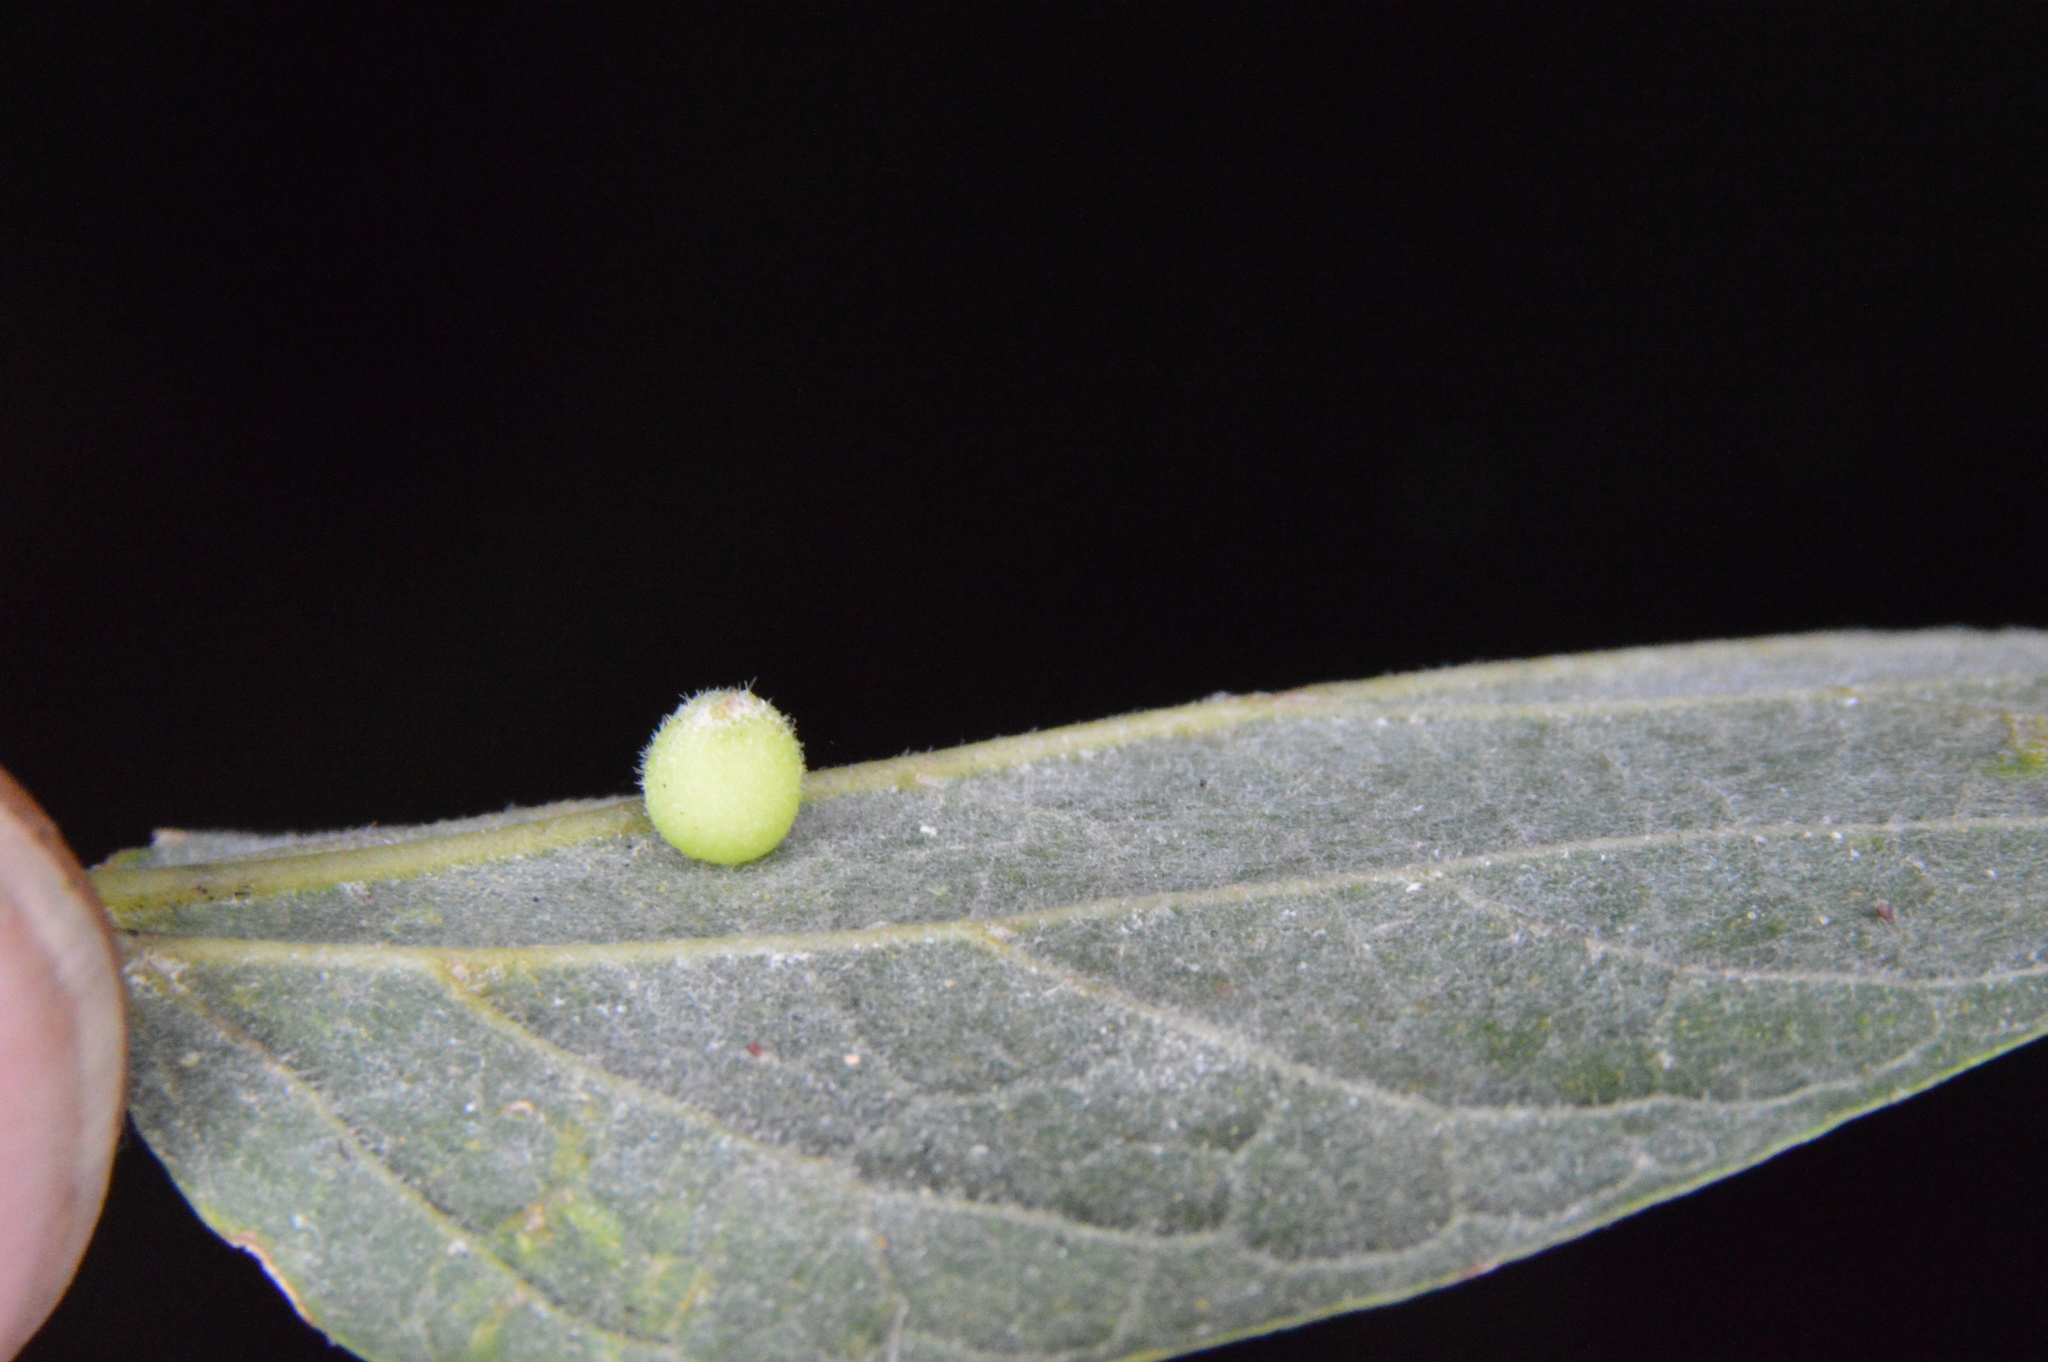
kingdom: Animalia
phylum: Arthropoda
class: Insecta
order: Diptera
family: Cecidomyiidae
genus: Celticecis
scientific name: Celticecis globosa
